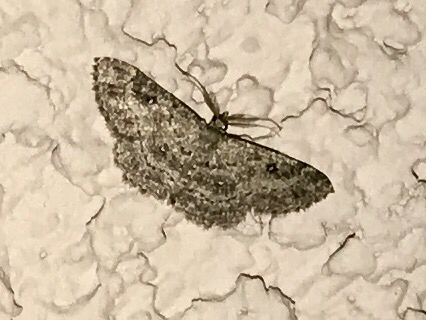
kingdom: Animalia
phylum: Arthropoda
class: Insecta
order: Lepidoptera
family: Geometridae
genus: Cyclophora
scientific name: Cyclophora nanaria
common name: Cankerworm
